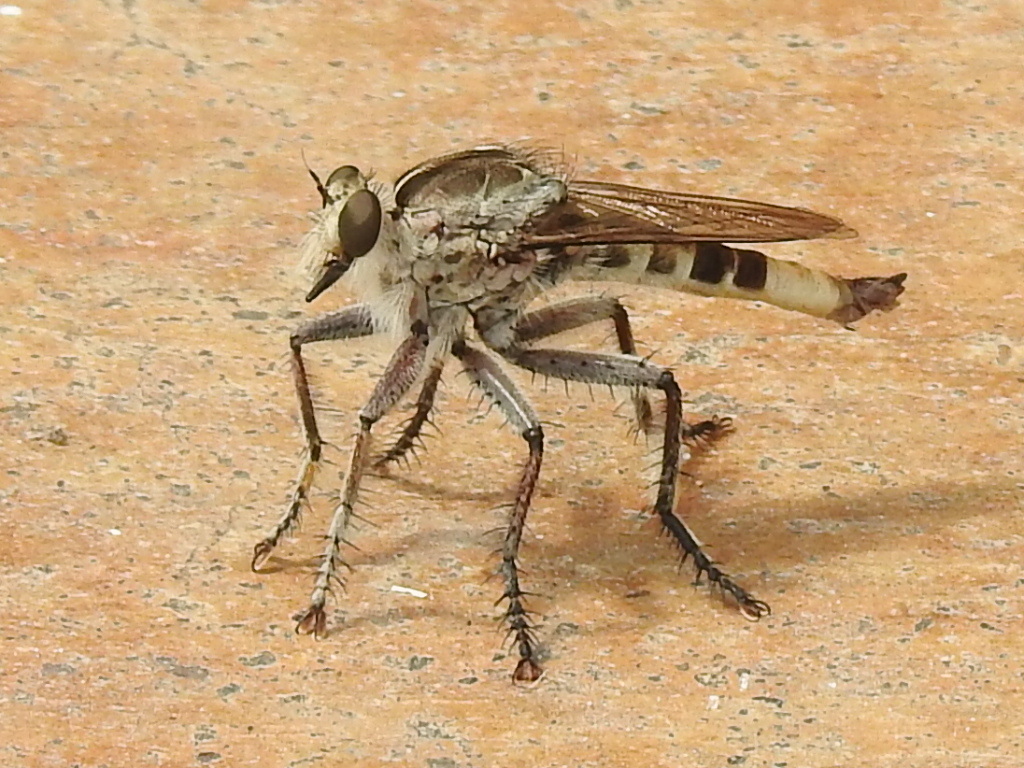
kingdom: Animalia
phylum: Arthropoda
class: Insecta
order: Diptera
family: Asilidae
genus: Triorla
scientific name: Triorla interrupta
